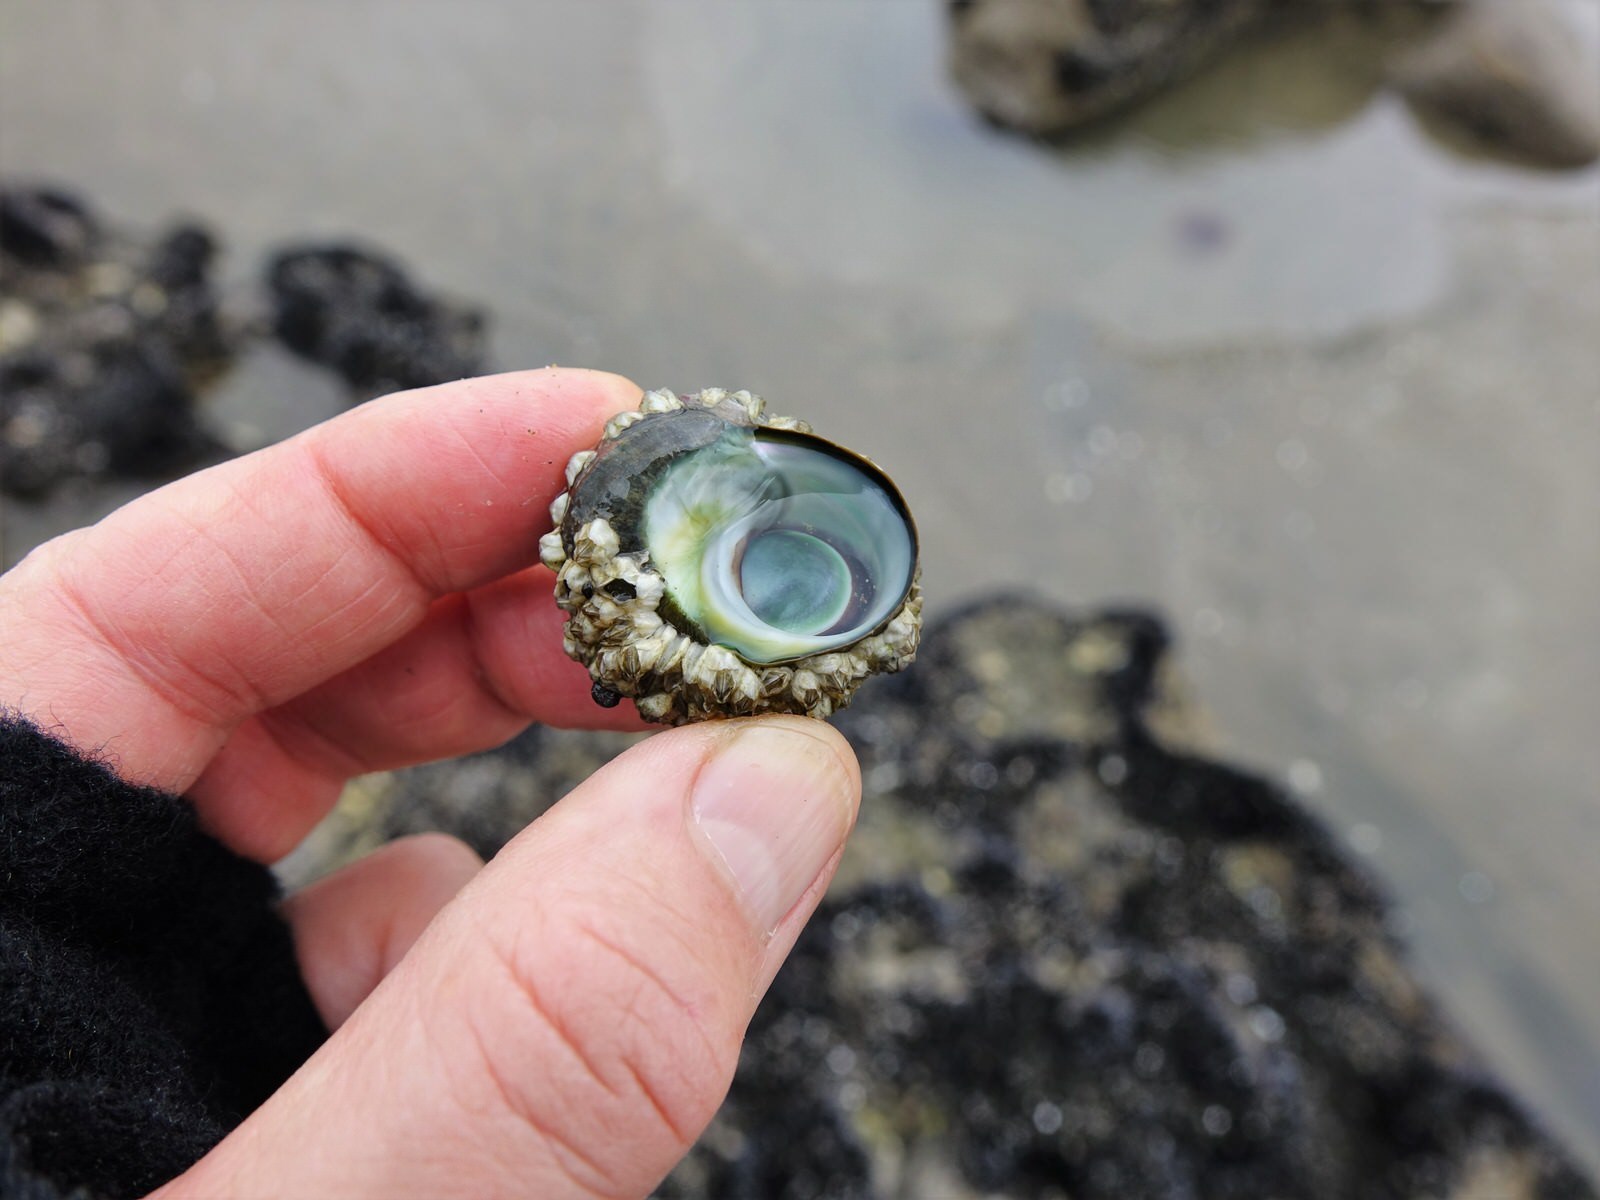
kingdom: Animalia
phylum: Mollusca
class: Gastropoda
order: Trochida
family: Turbinidae
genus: Lunella
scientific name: Lunella smaragda
